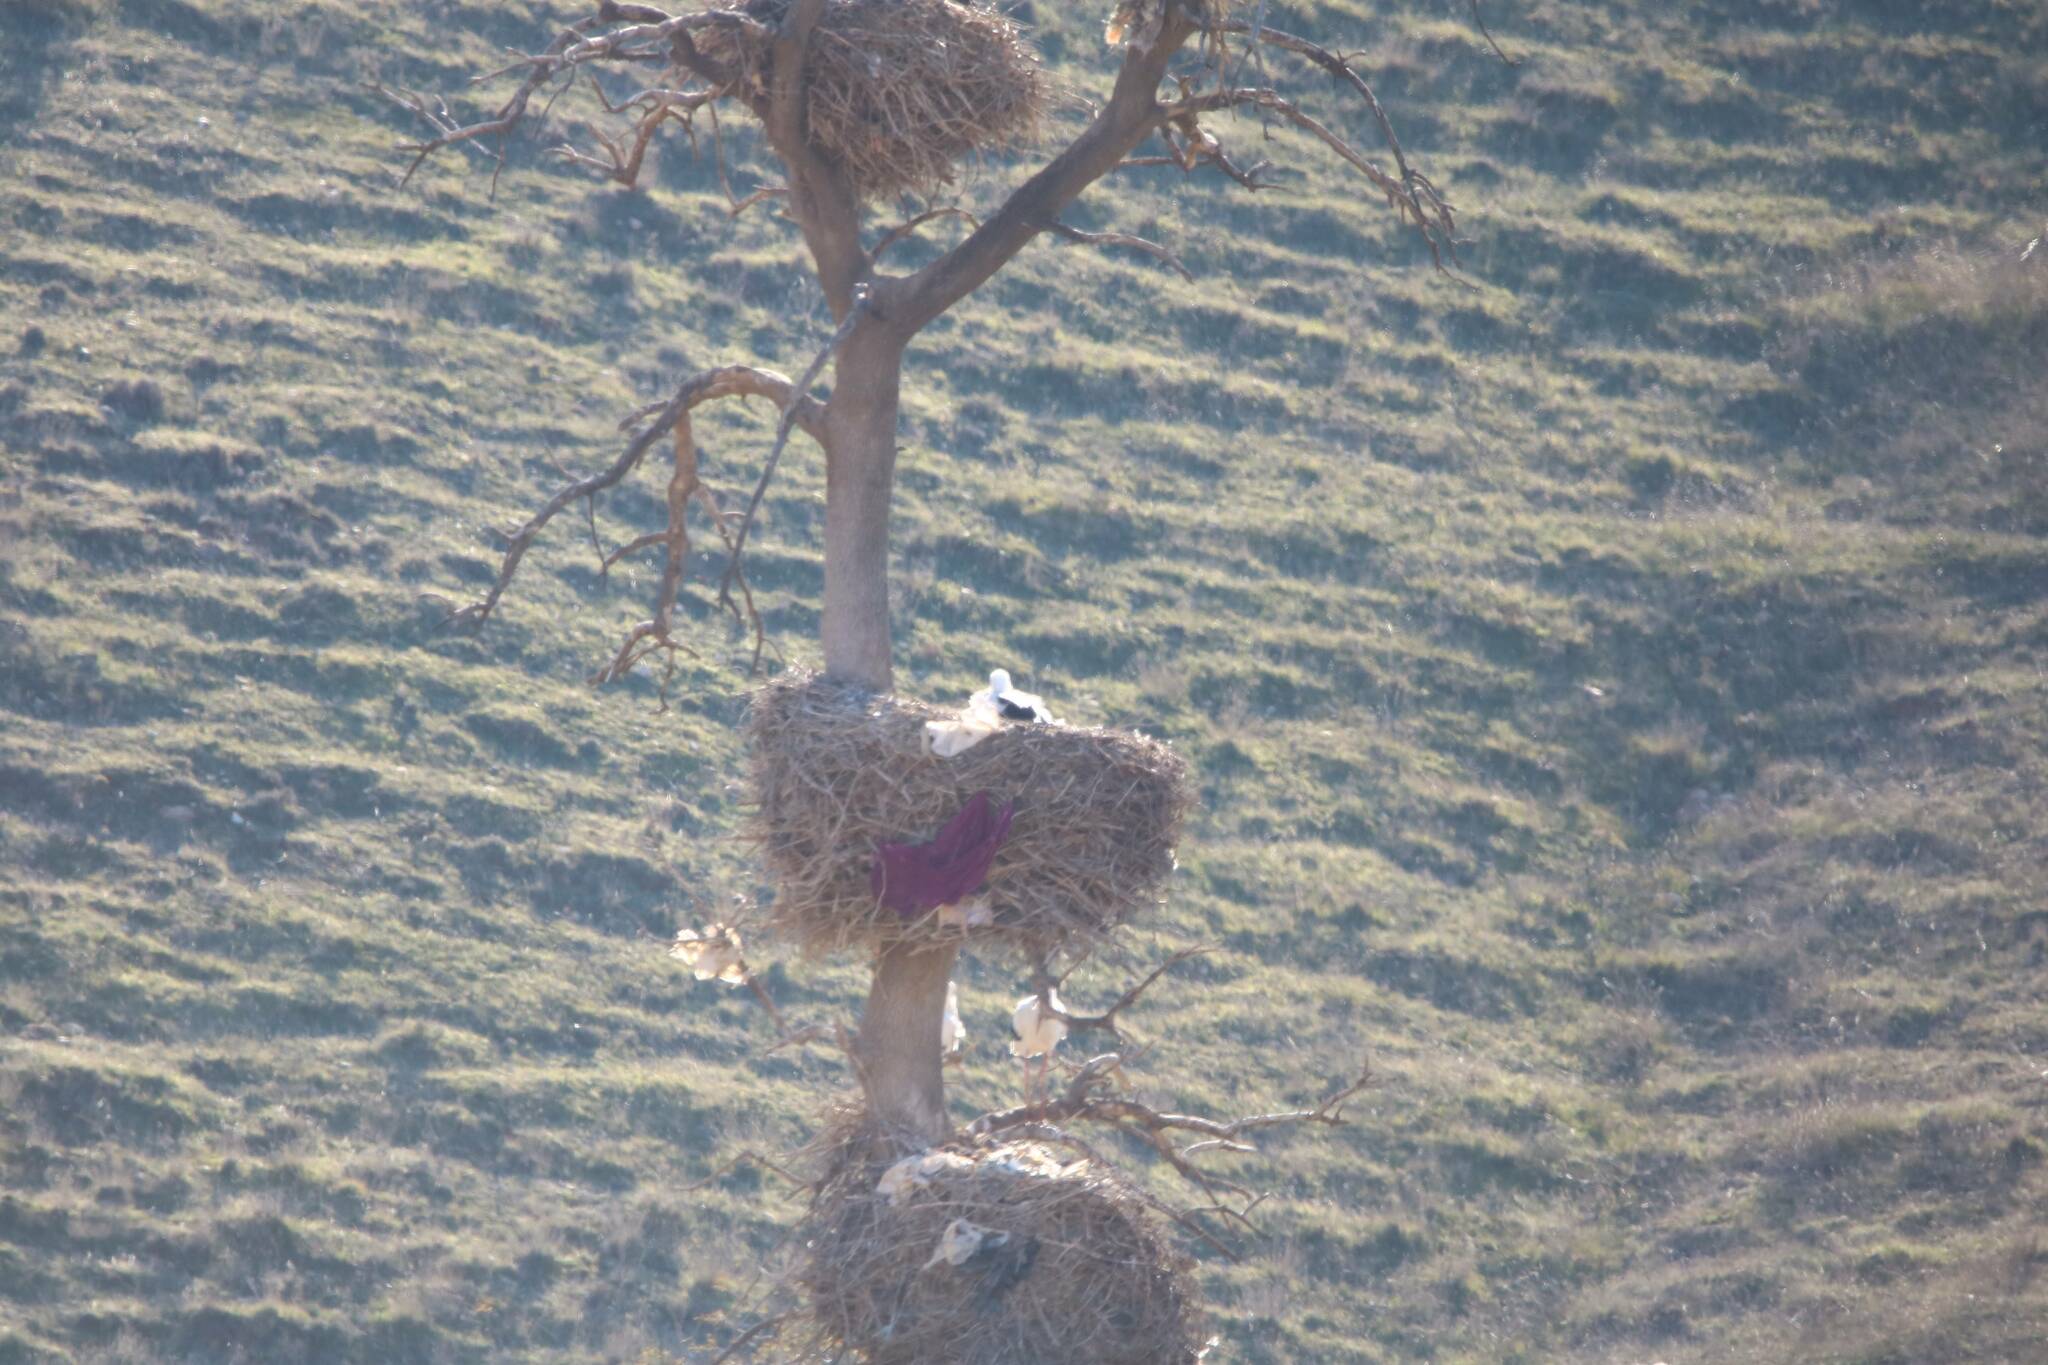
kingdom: Animalia
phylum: Chordata
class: Aves
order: Ciconiiformes
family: Ciconiidae
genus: Ciconia
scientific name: Ciconia ciconia
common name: White stork
